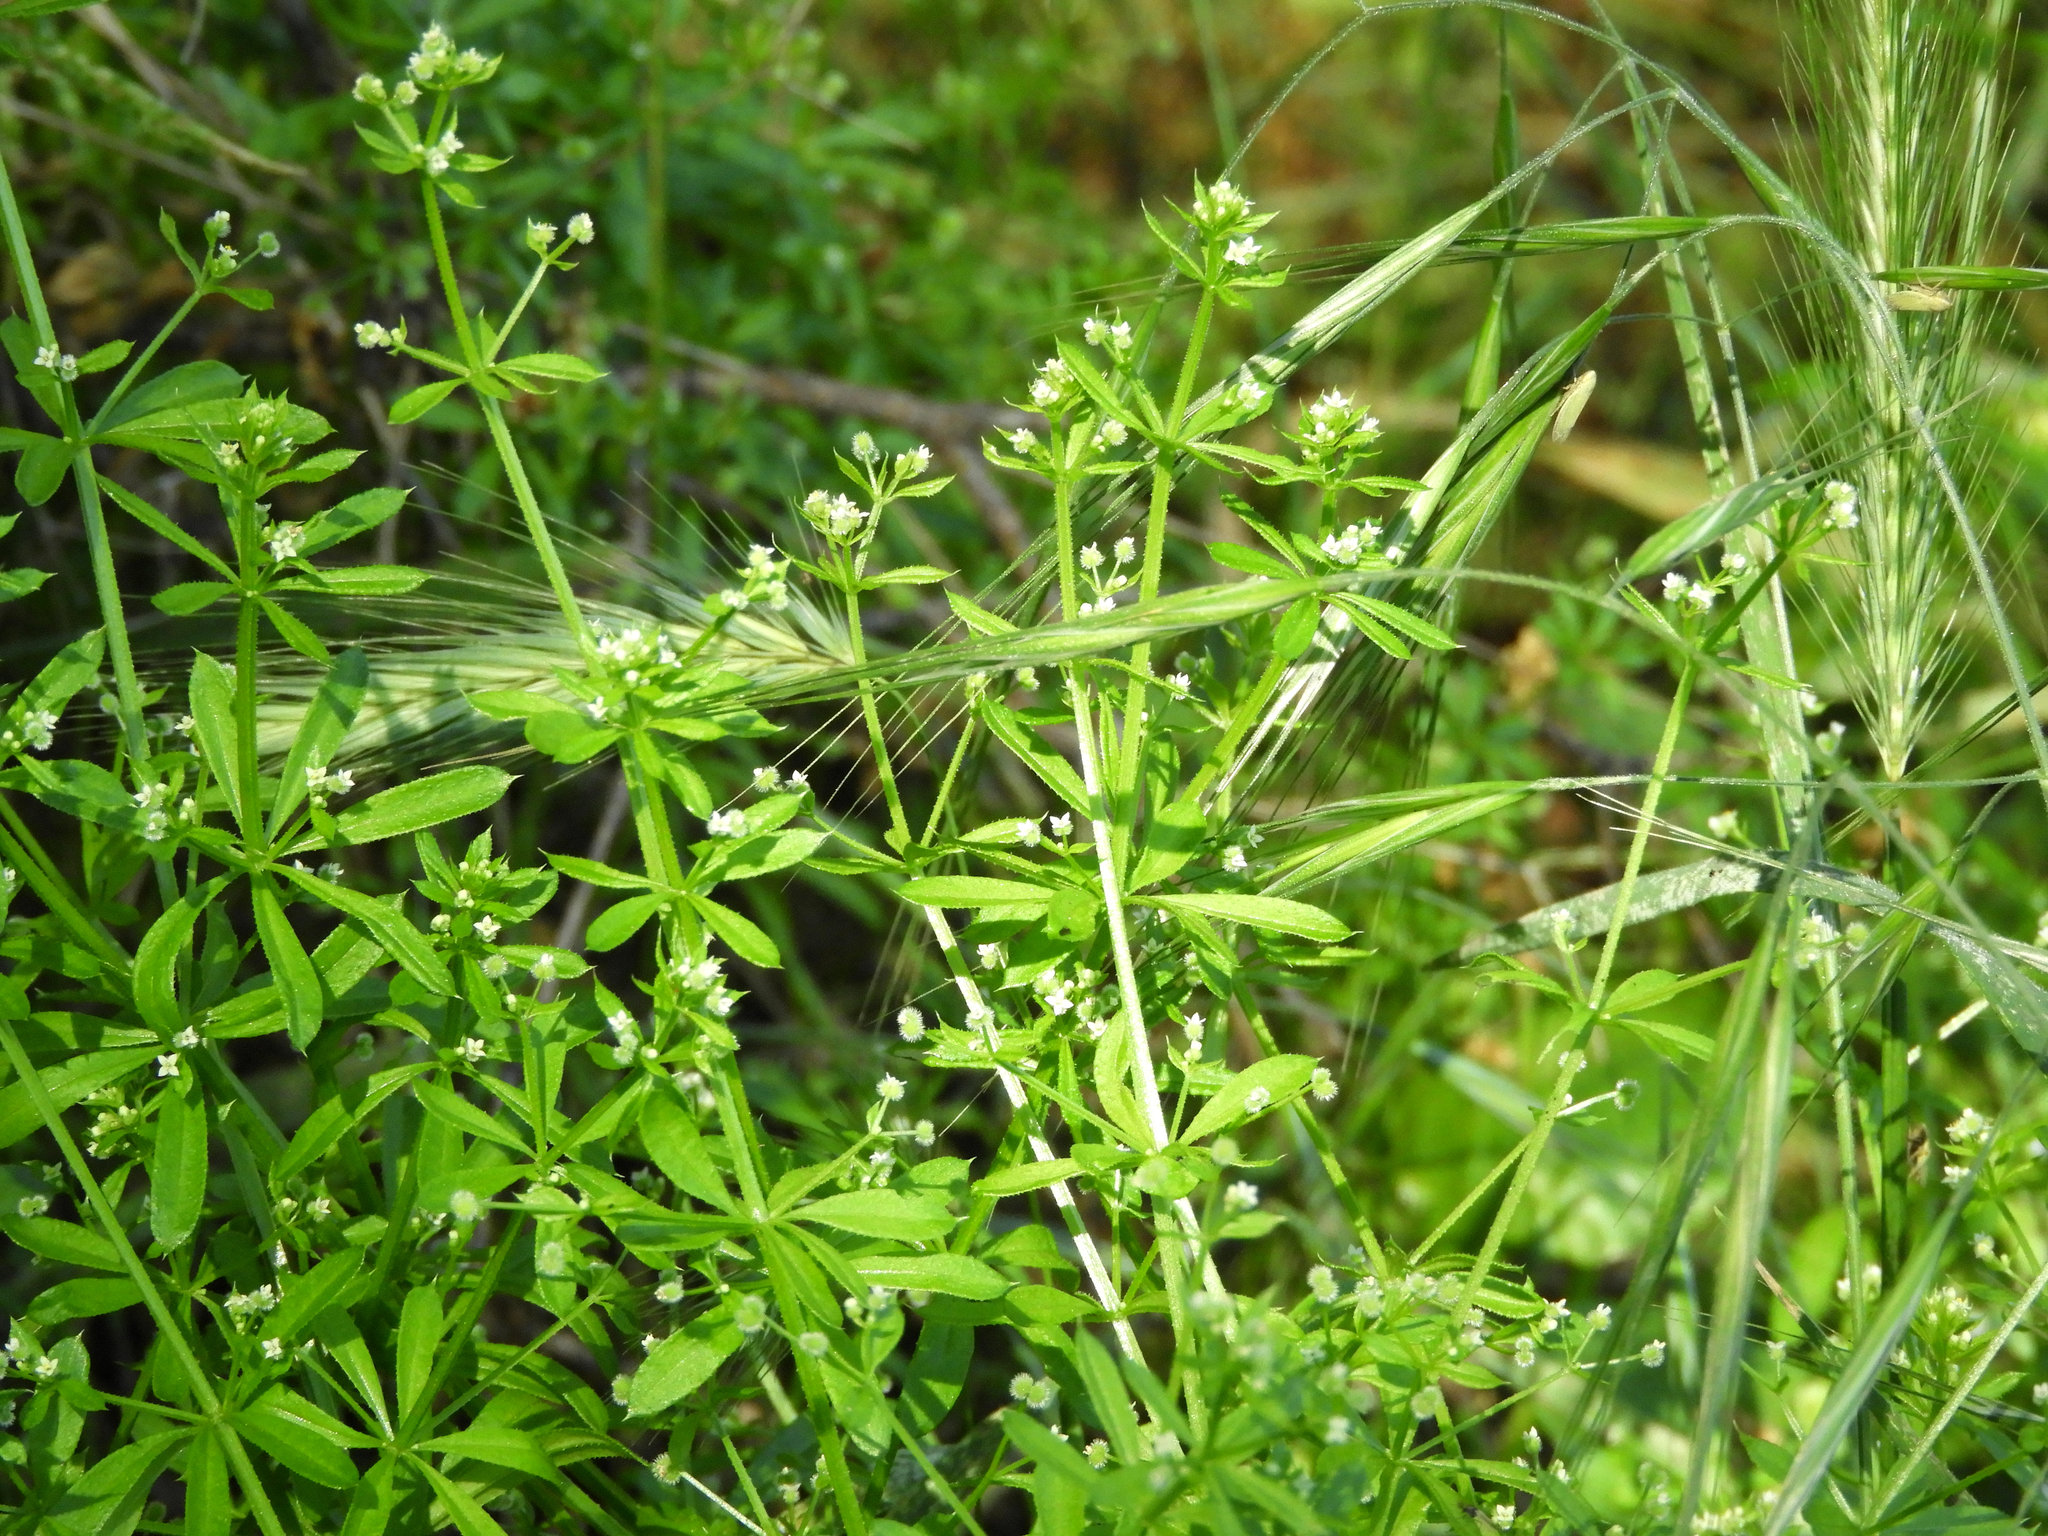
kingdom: Plantae
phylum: Tracheophyta
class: Magnoliopsida
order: Gentianales
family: Rubiaceae
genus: Galium
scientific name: Galium aparine
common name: Cleavers
